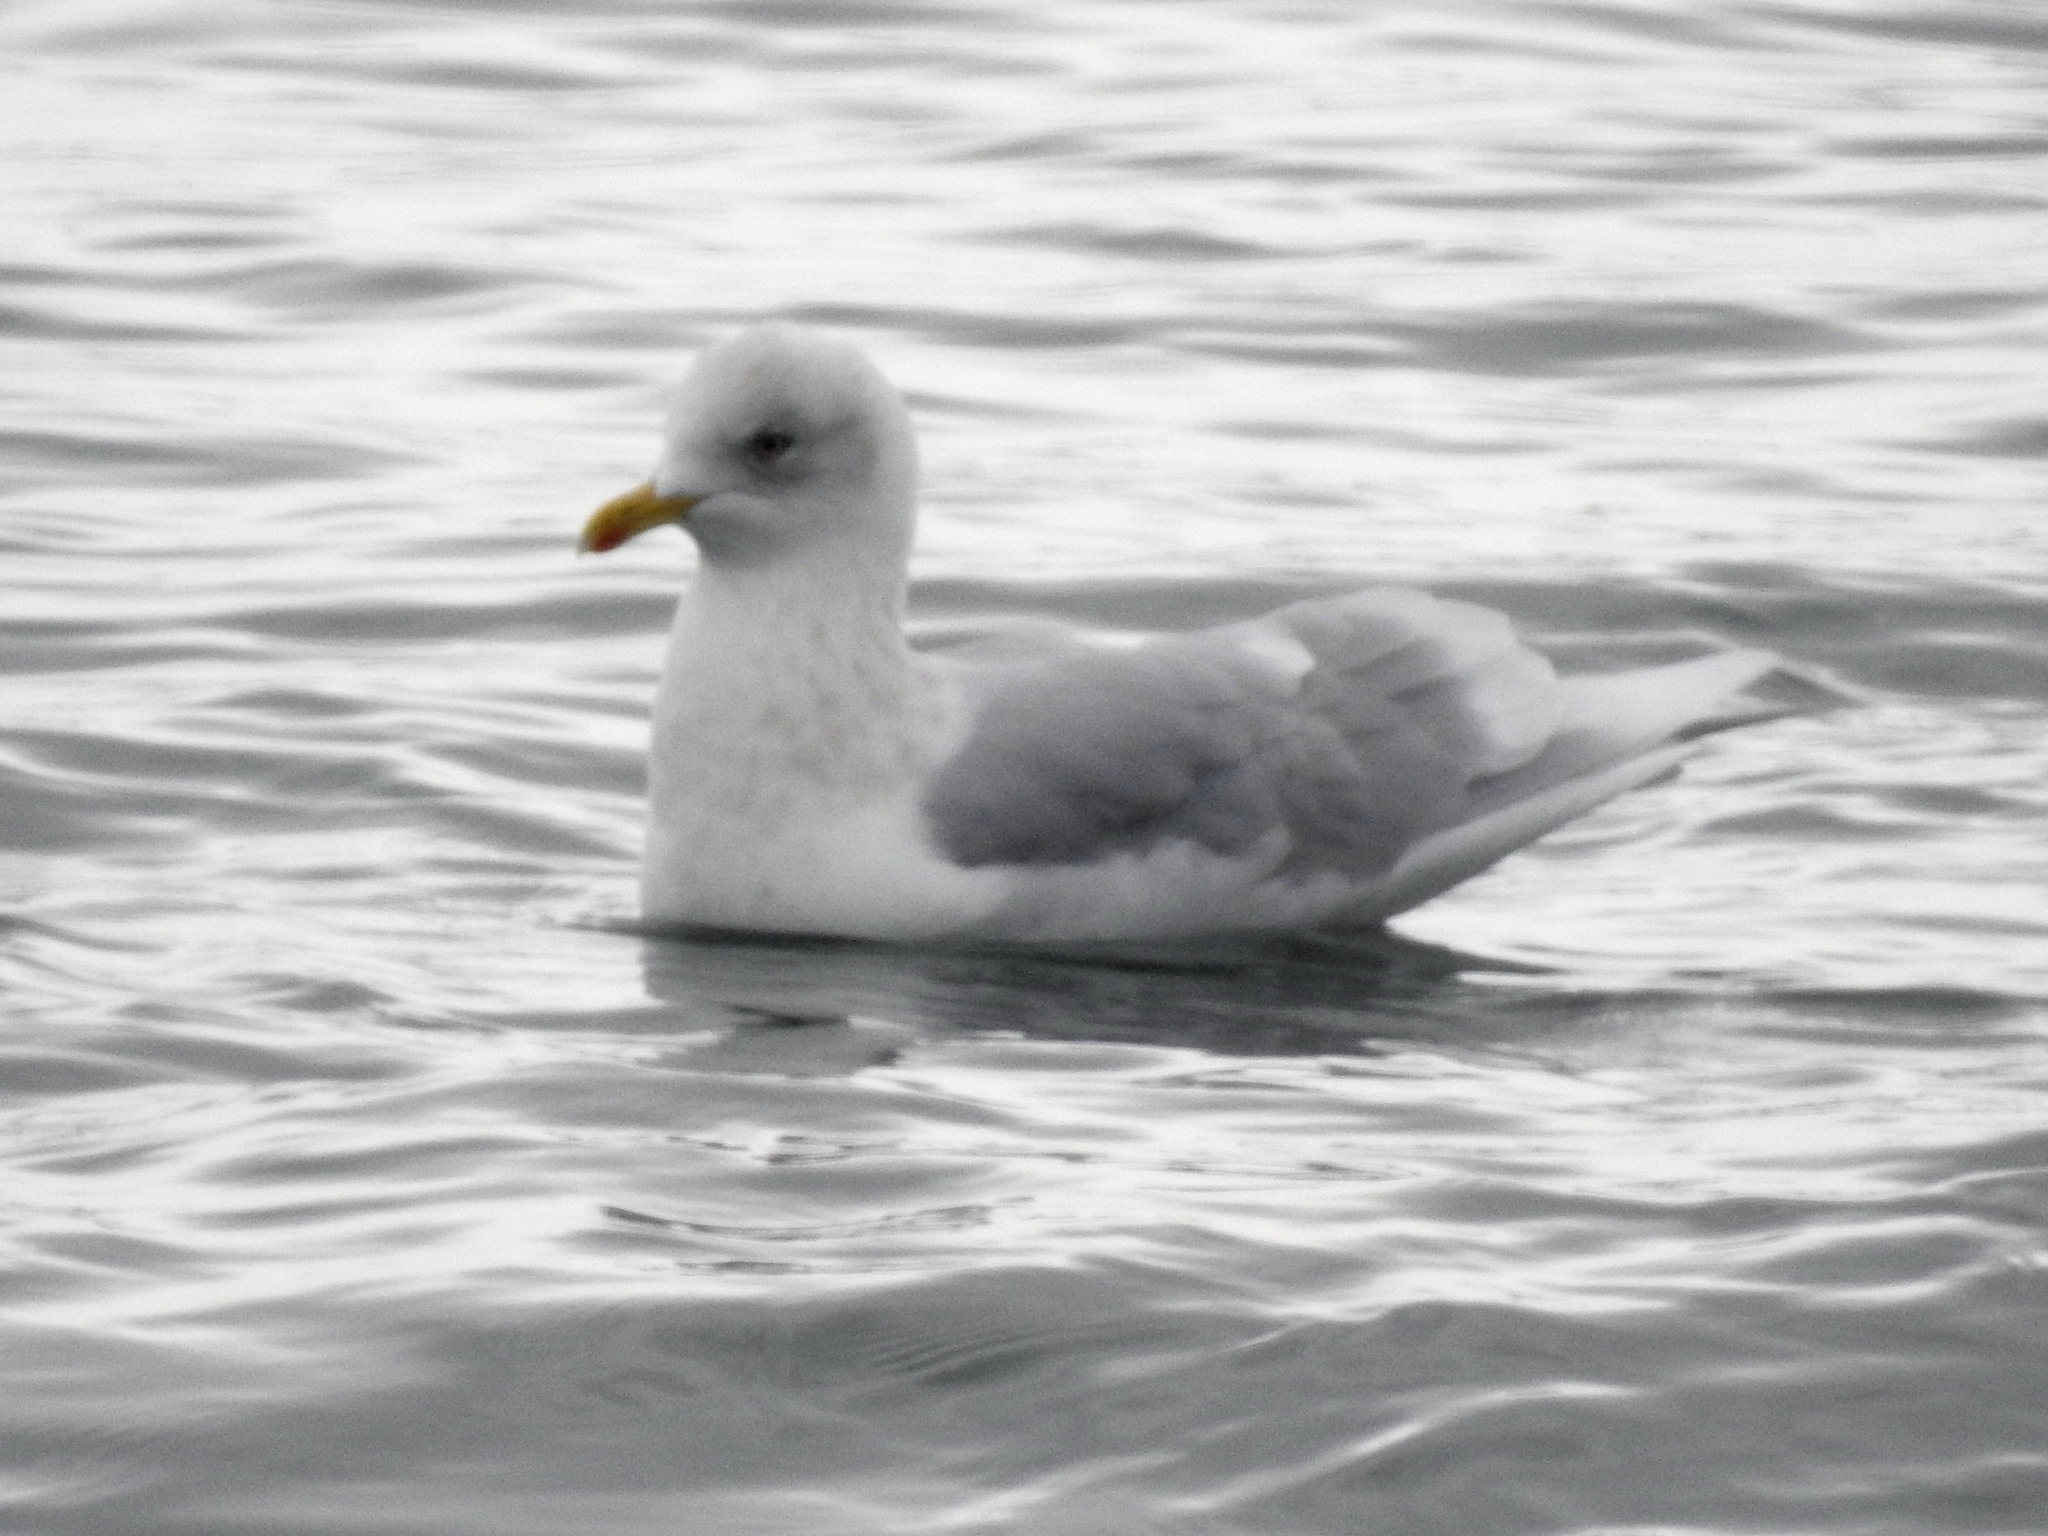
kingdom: Animalia
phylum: Chordata
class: Aves
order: Charadriiformes
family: Laridae
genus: Larus
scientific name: Larus glaucoides
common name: Iceland gull
